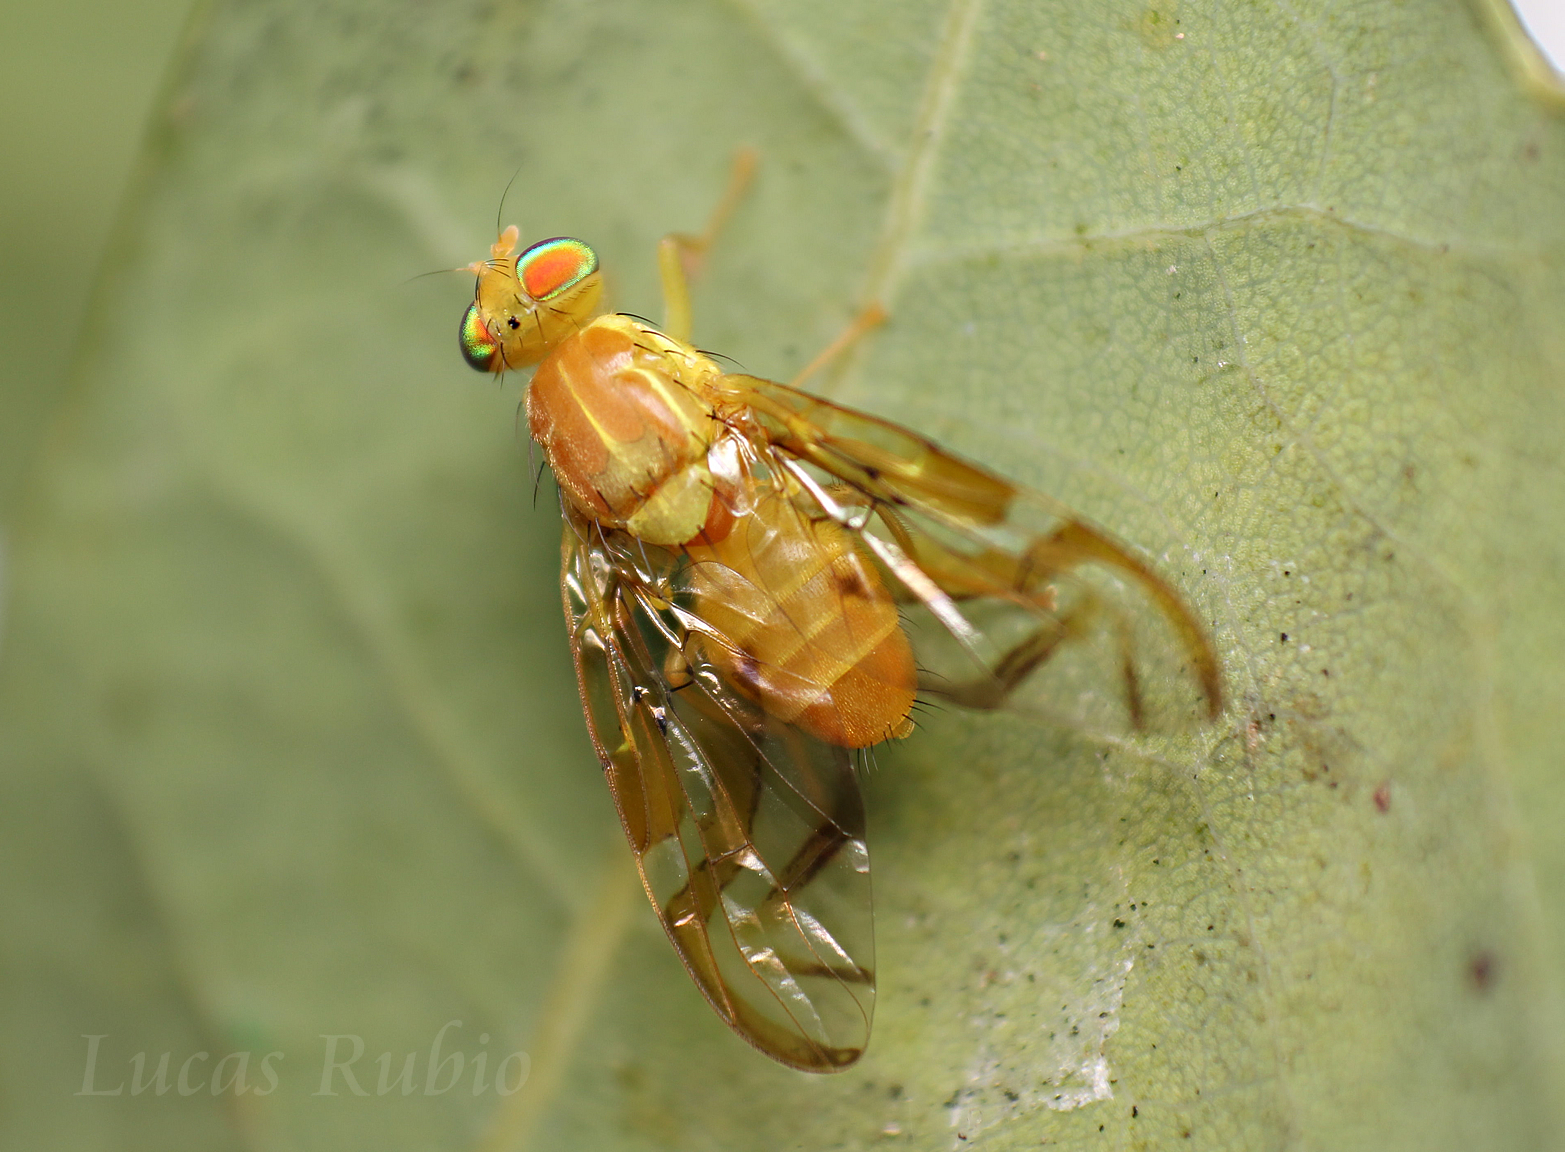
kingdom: Animalia
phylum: Arthropoda
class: Insecta
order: Diptera
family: Tephritidae
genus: Anastrepha
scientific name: Anastrepha fratercula
